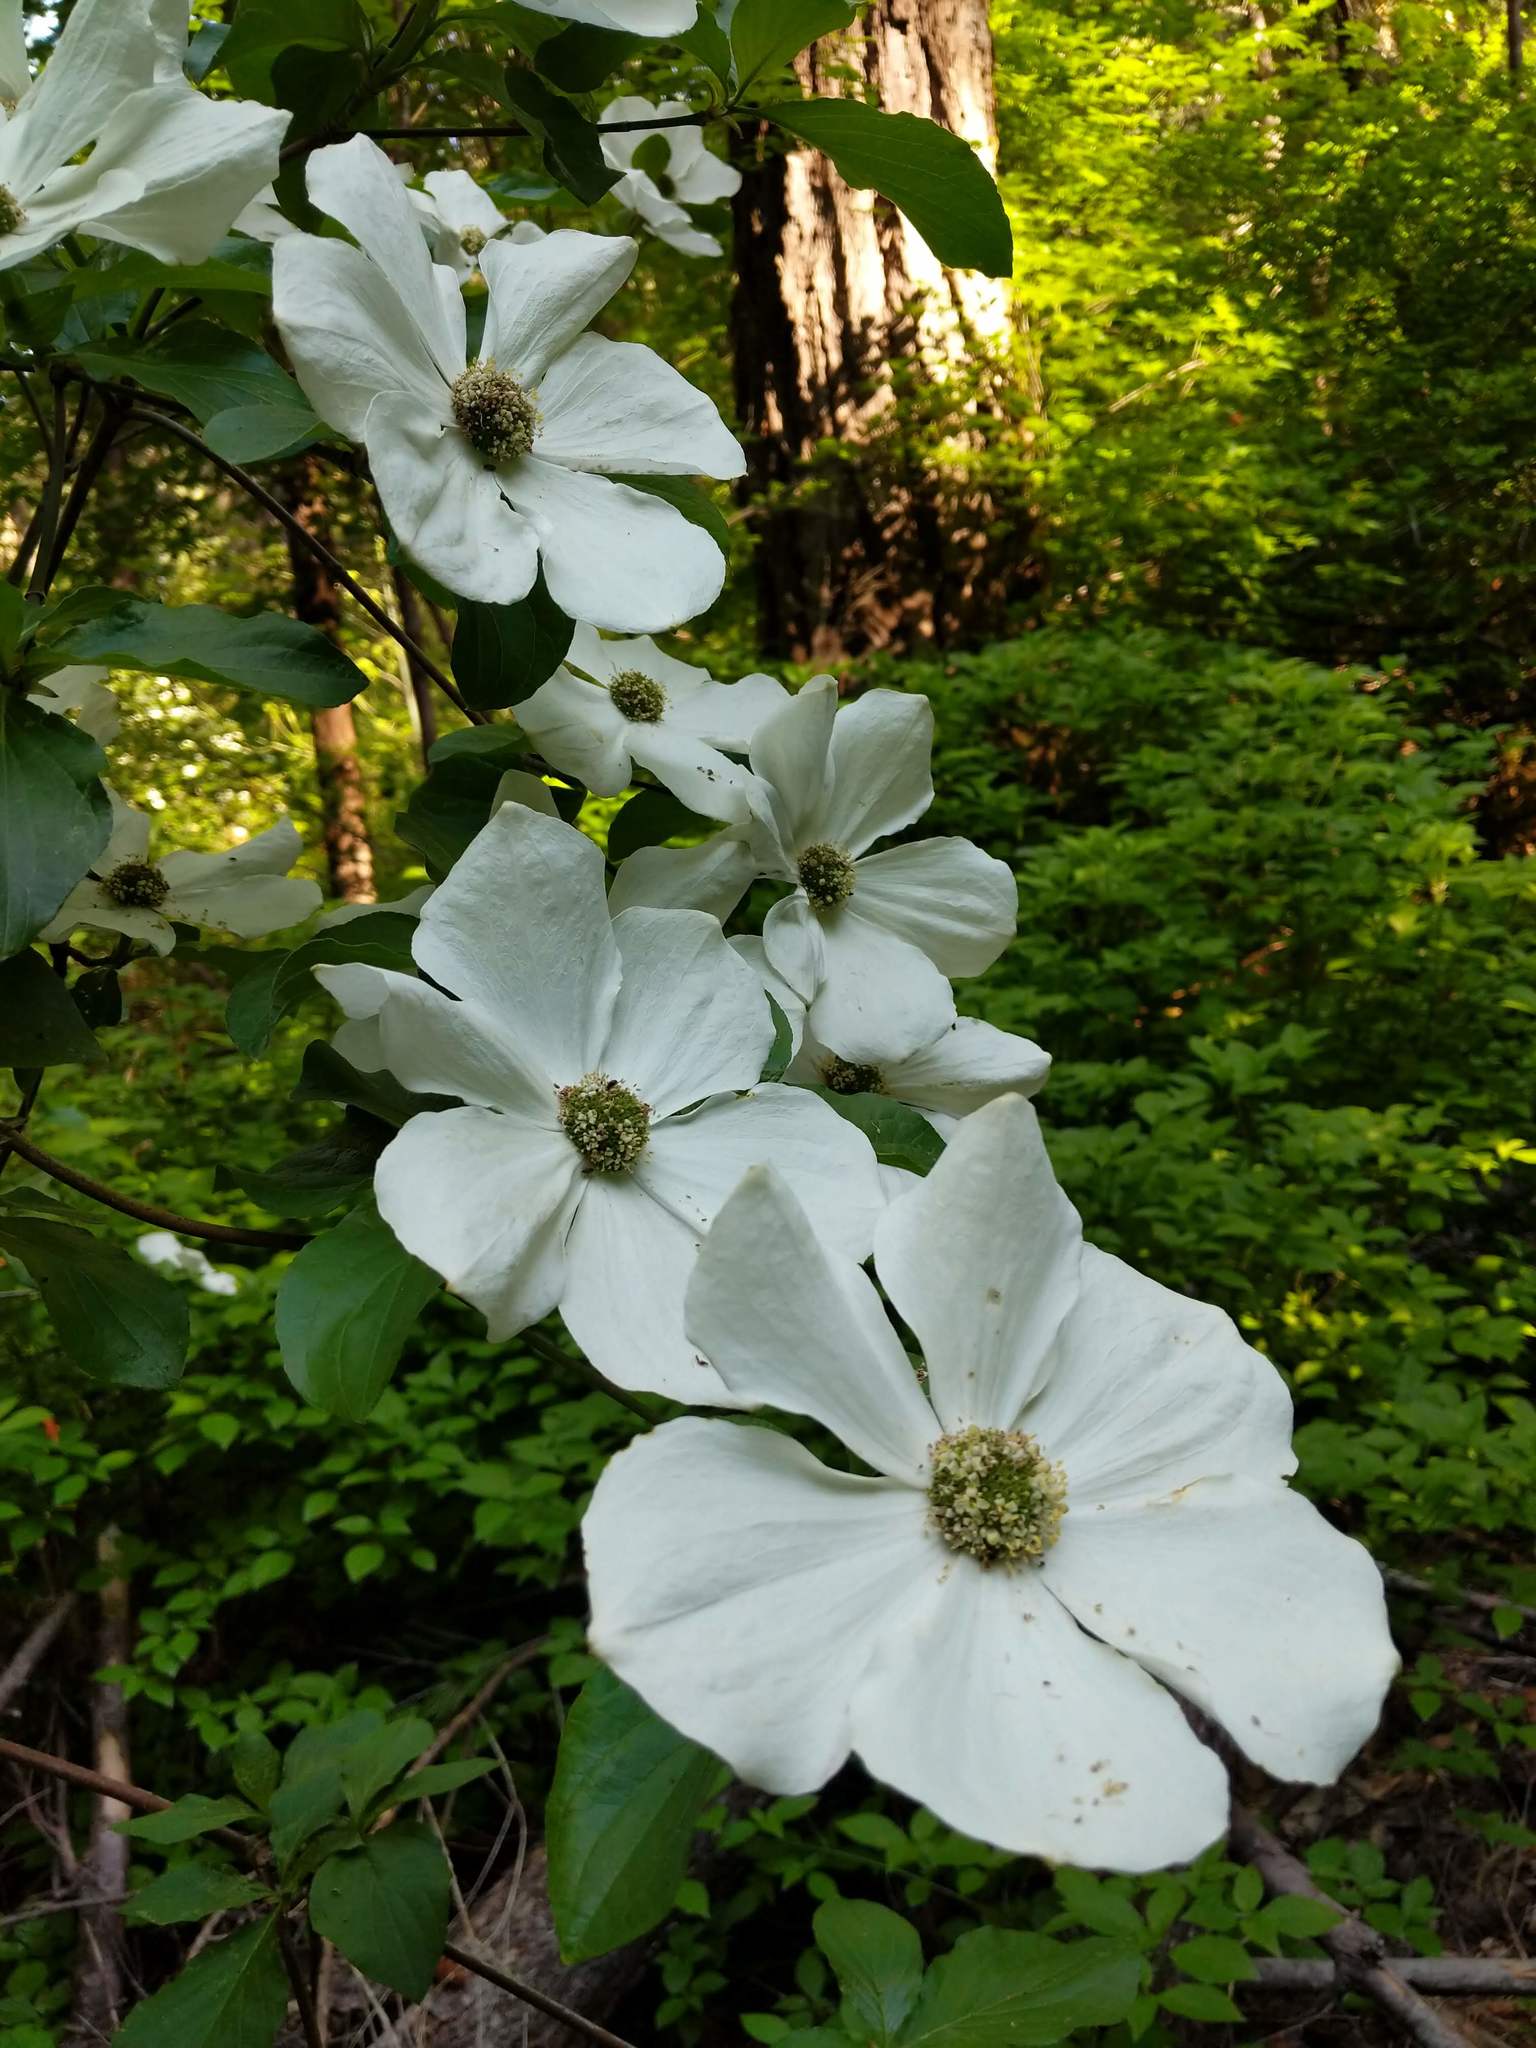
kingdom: Plantae
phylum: Tracheophyta
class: Magnoliopsida
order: Cornales
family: Cornaceae
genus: Cornus
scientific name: Cornus nuttallii
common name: Pacific dogwood
